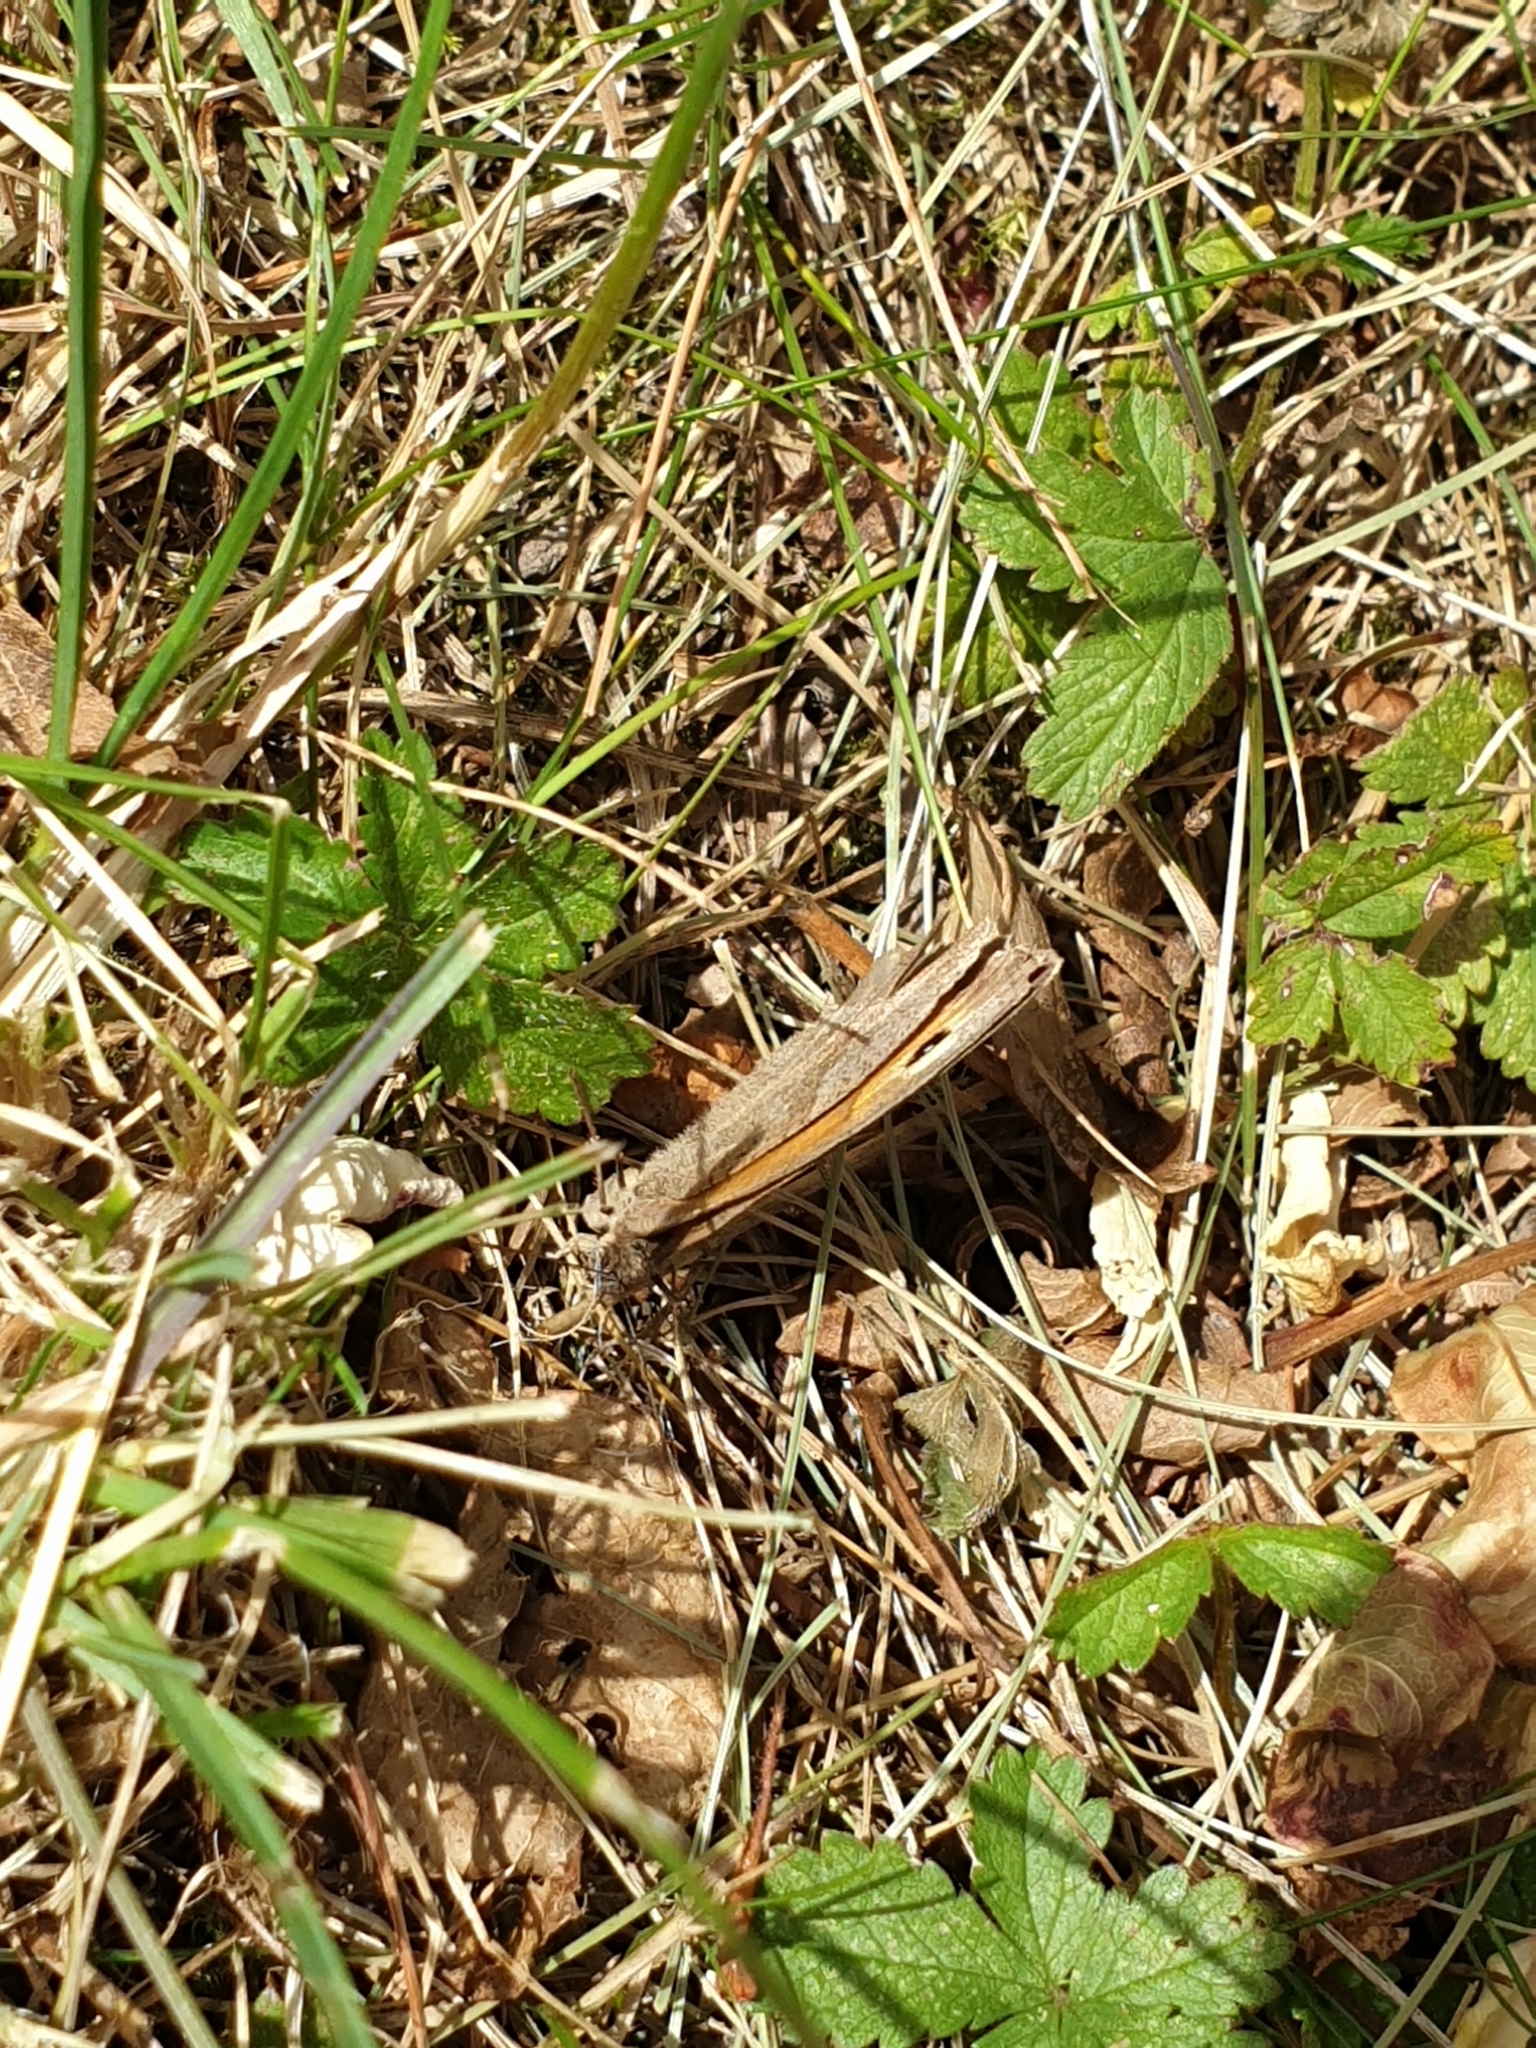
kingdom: Animalia
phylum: Arthropoda
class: Insecta
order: Lepidoptera
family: Nymphalidae
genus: Maniola
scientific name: Maniola jurtina
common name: Meadow brown
